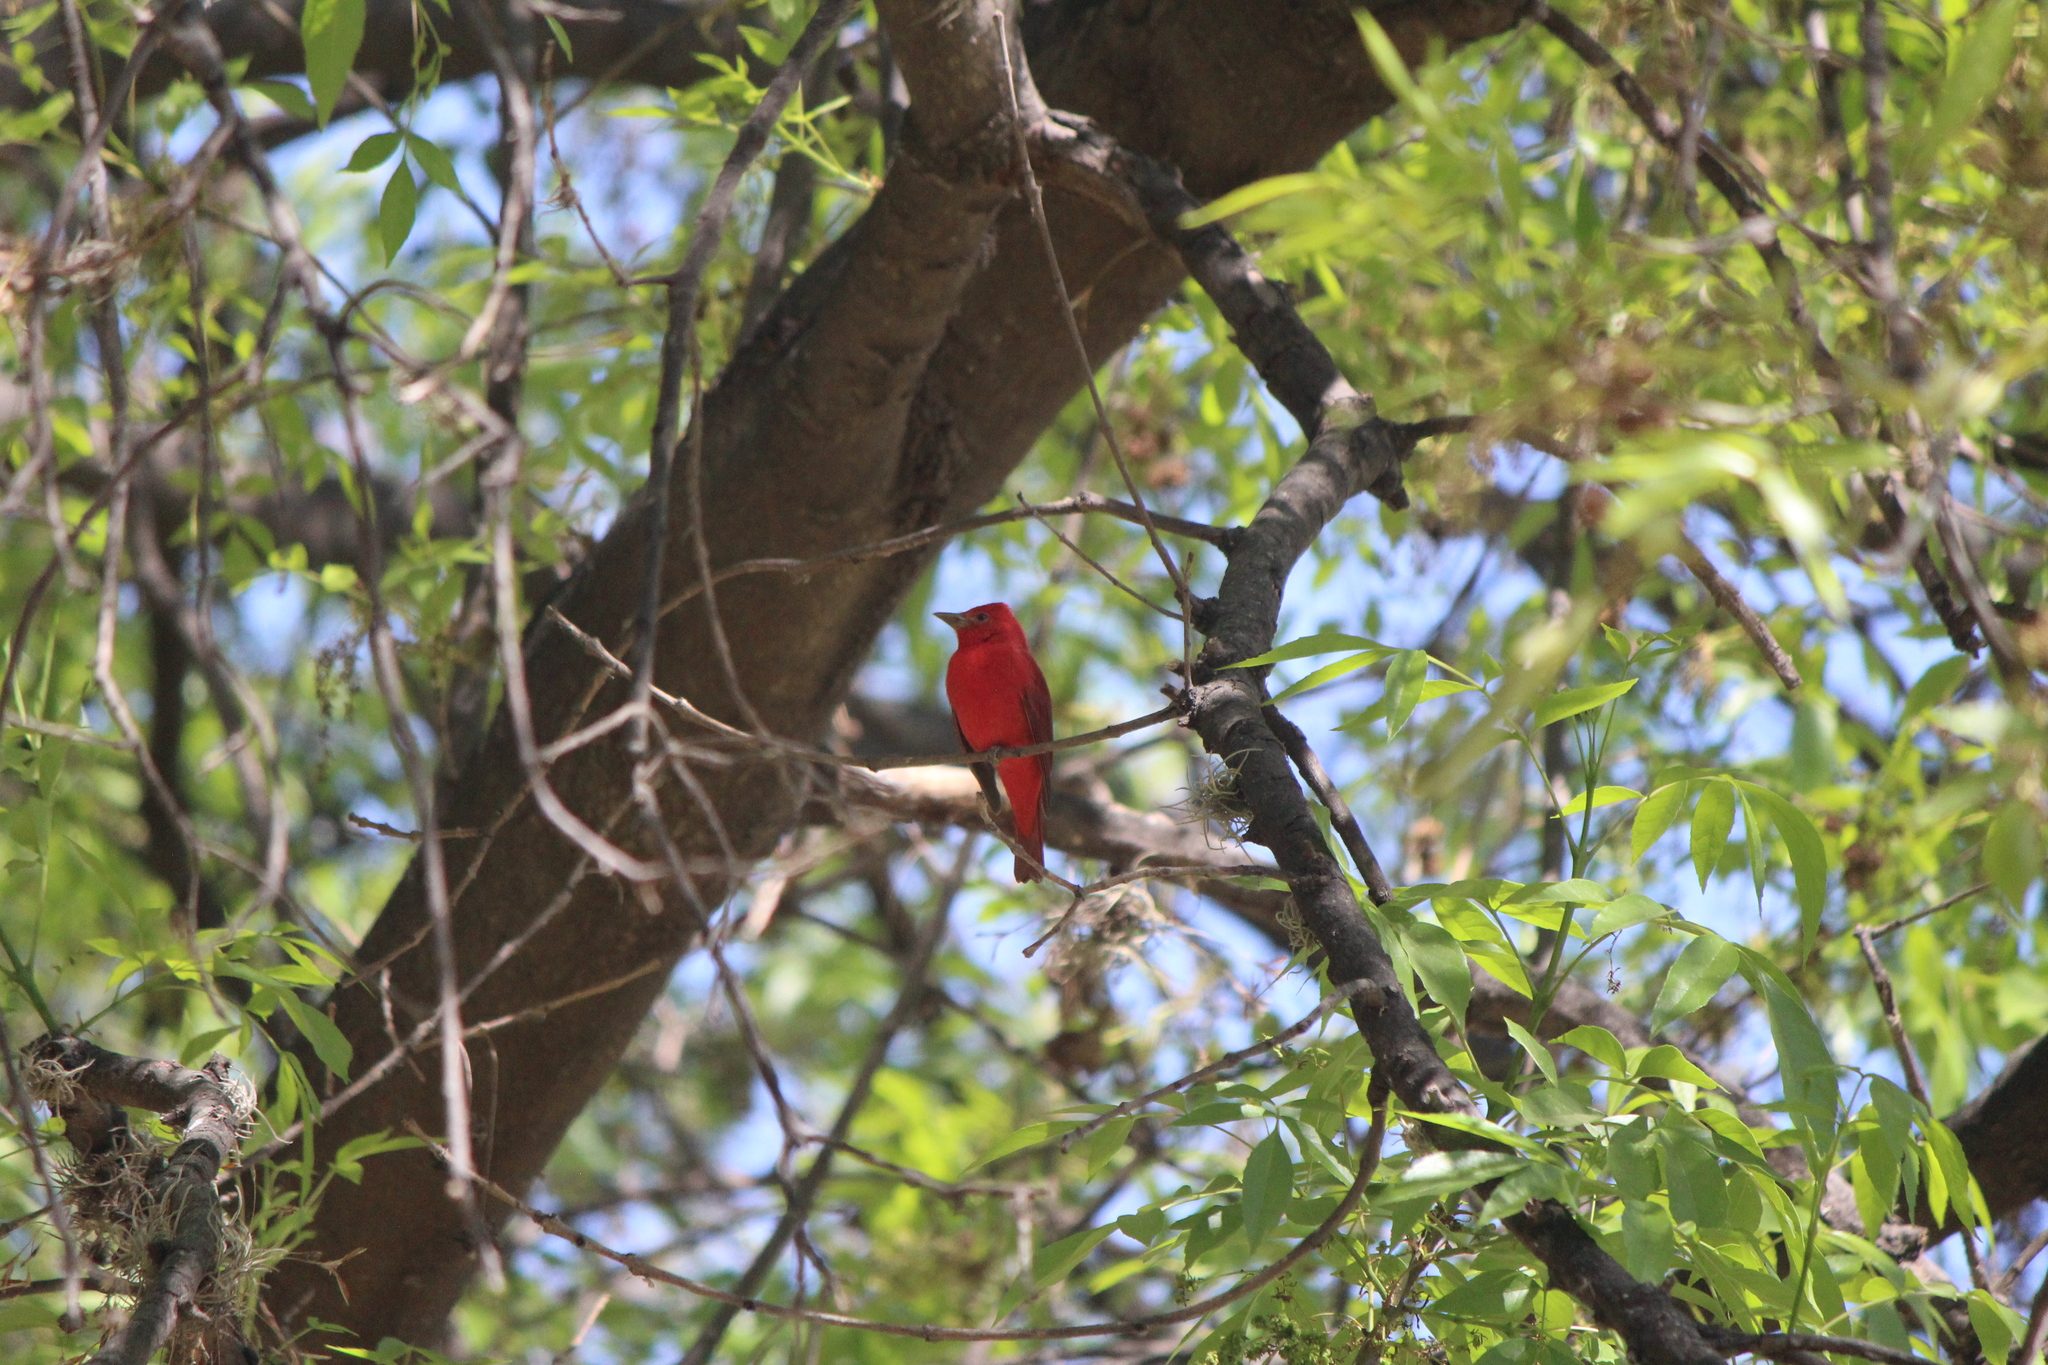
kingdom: Animalia
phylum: Chordata
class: Aves
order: Passeriformes
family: Cardinalidae
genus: Piranga
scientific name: Piranga rubra
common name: Summer tanager
